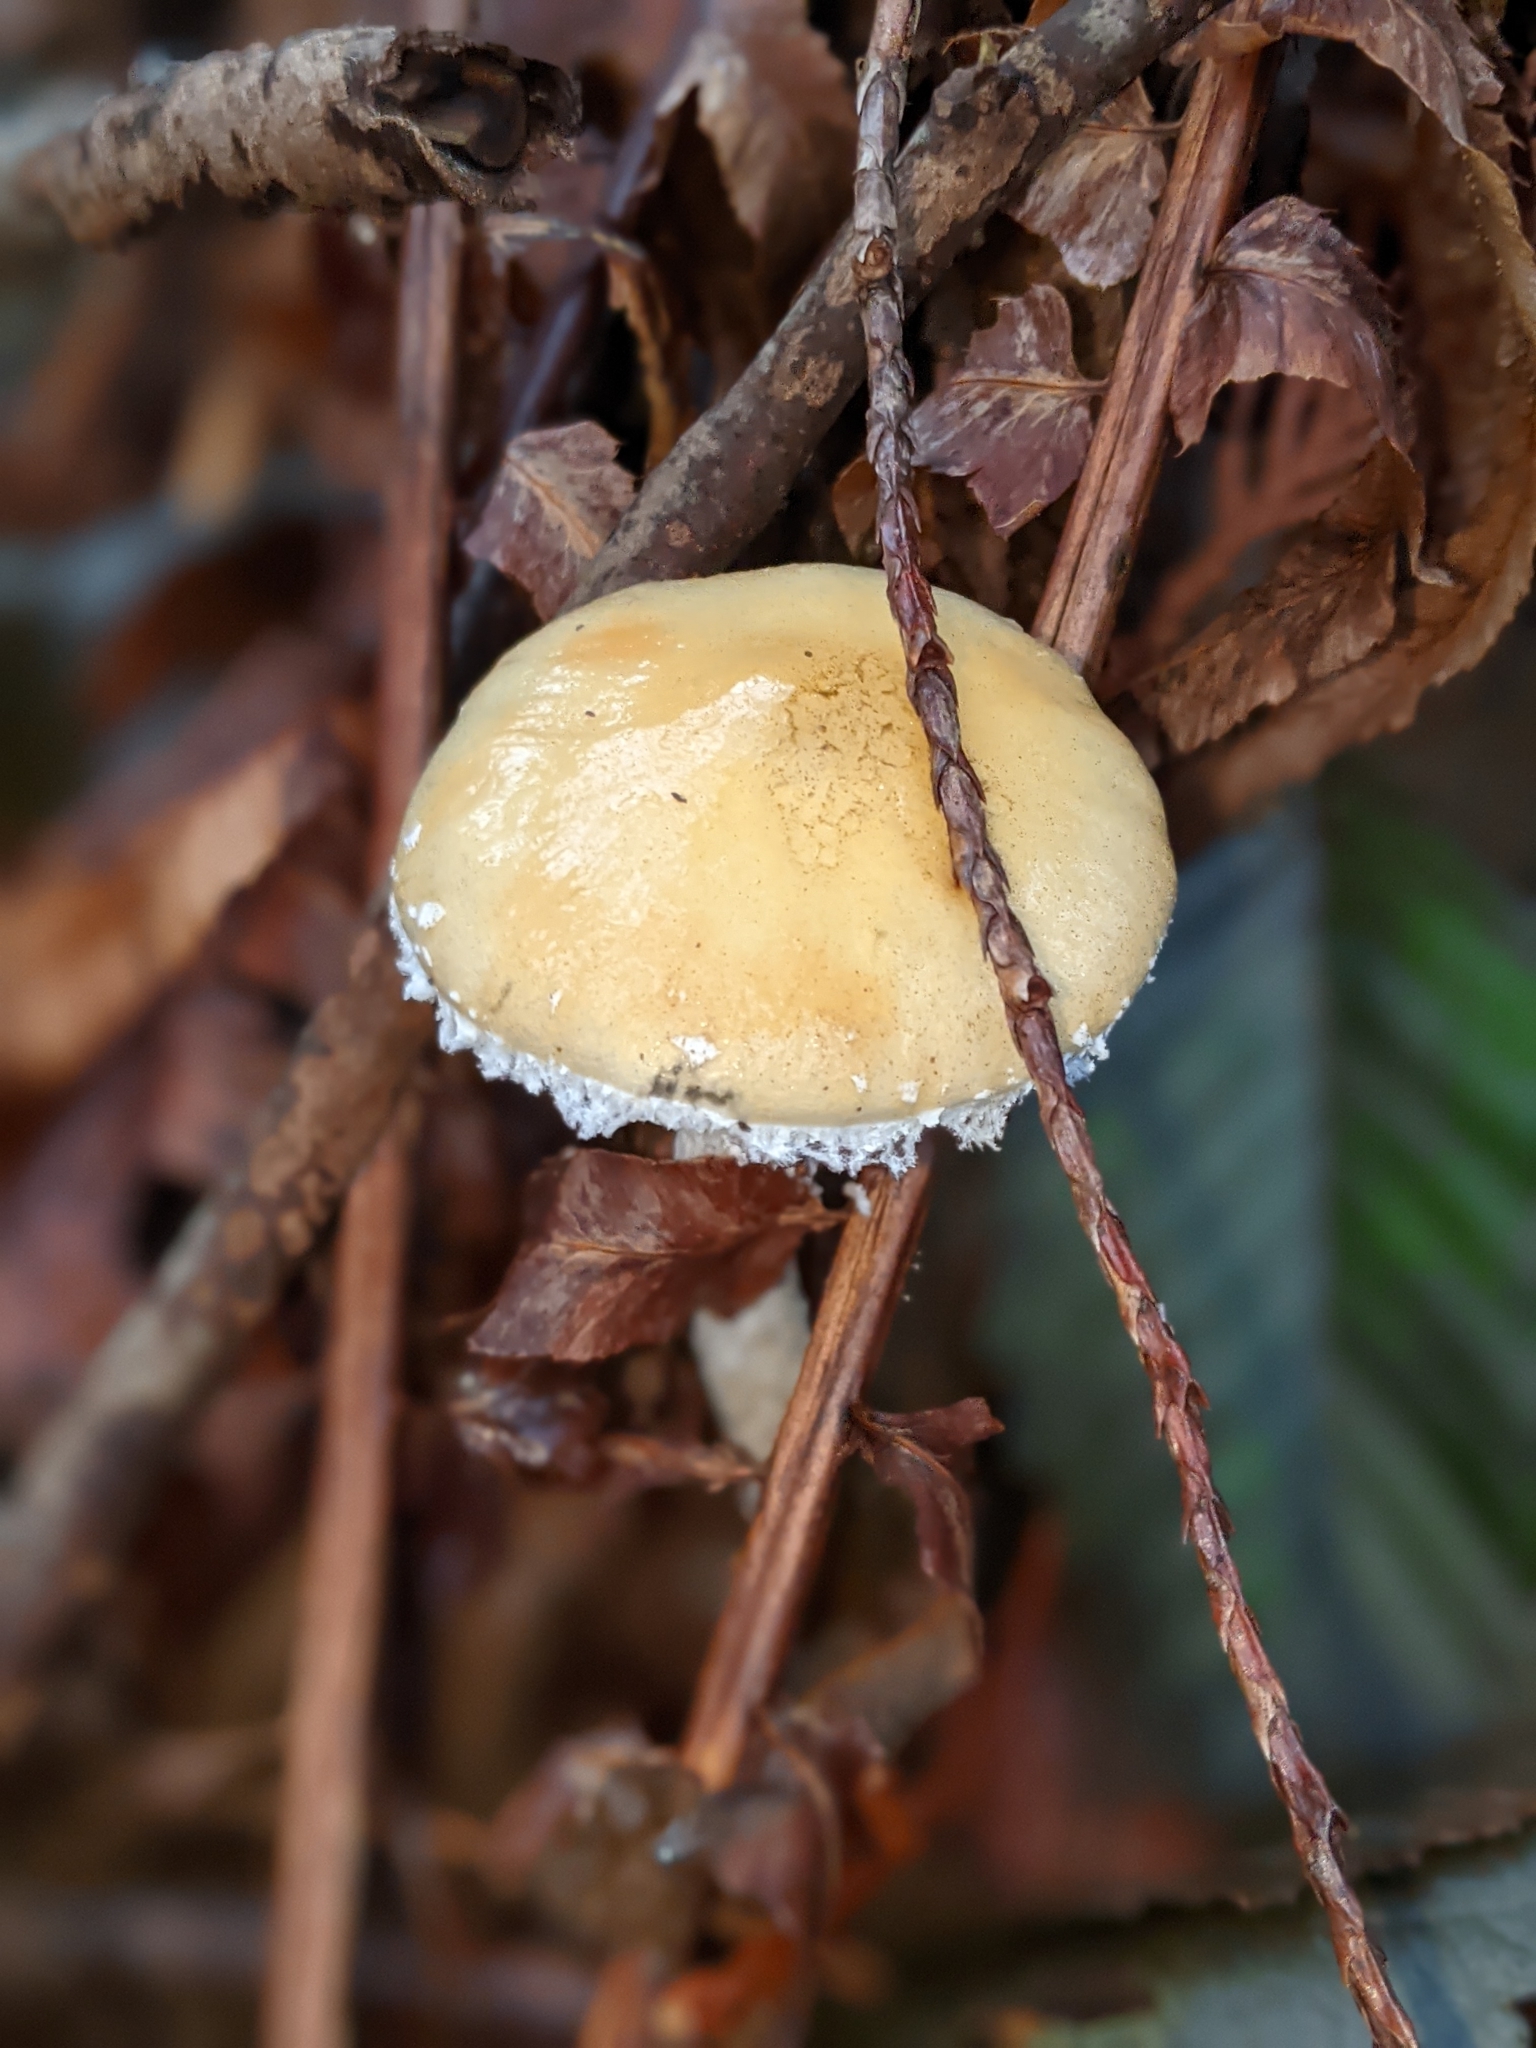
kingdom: Fungi
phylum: Basidiomycota
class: Agaricomycetes
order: Agaricales
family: Strophariaceae
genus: Stropharia
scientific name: Stropharia ambigua
